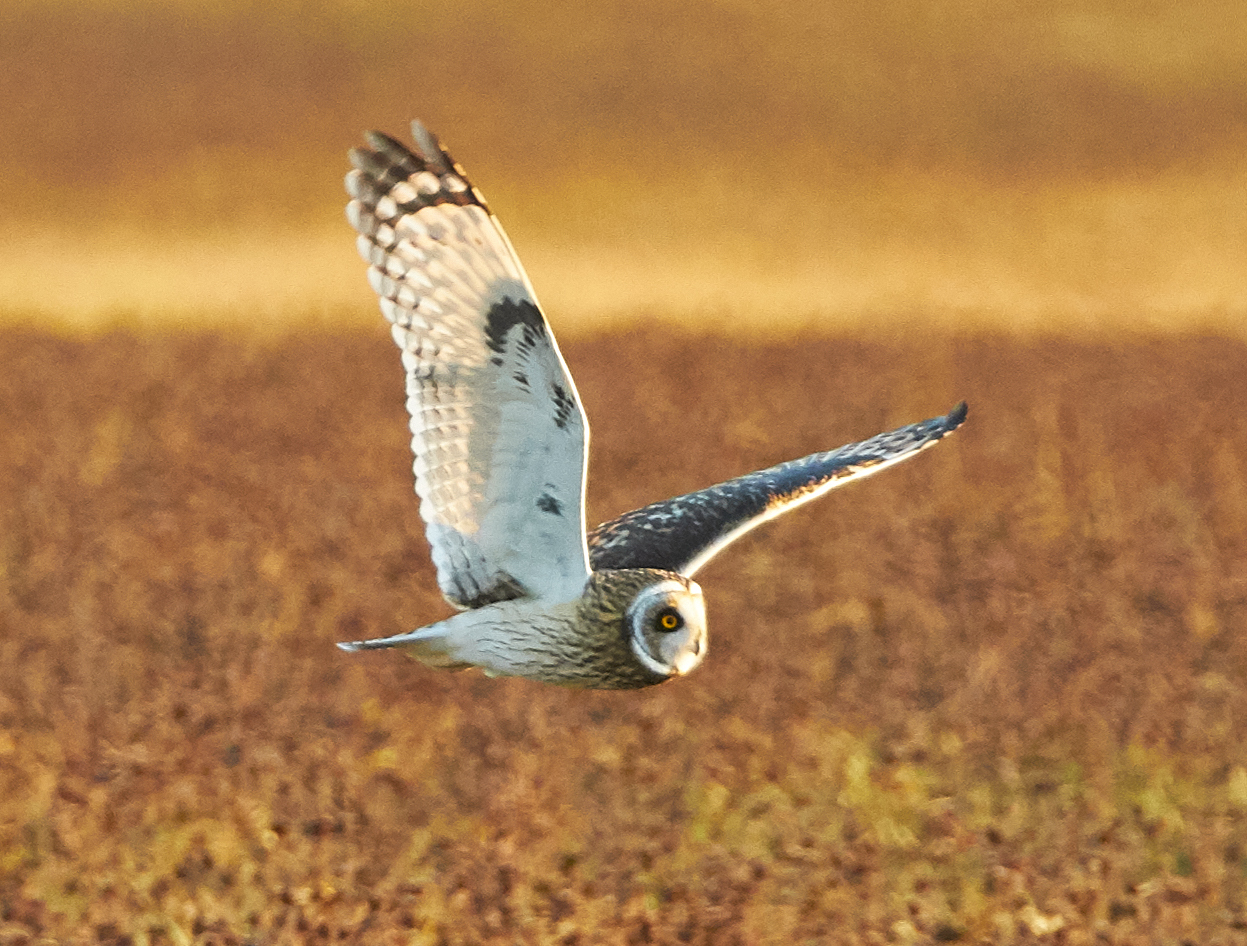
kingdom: Animalia
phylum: Chordata
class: Aves
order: Strigiformes
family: Strigidae
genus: Asio
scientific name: Asio flammeus
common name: Short-eared owl
